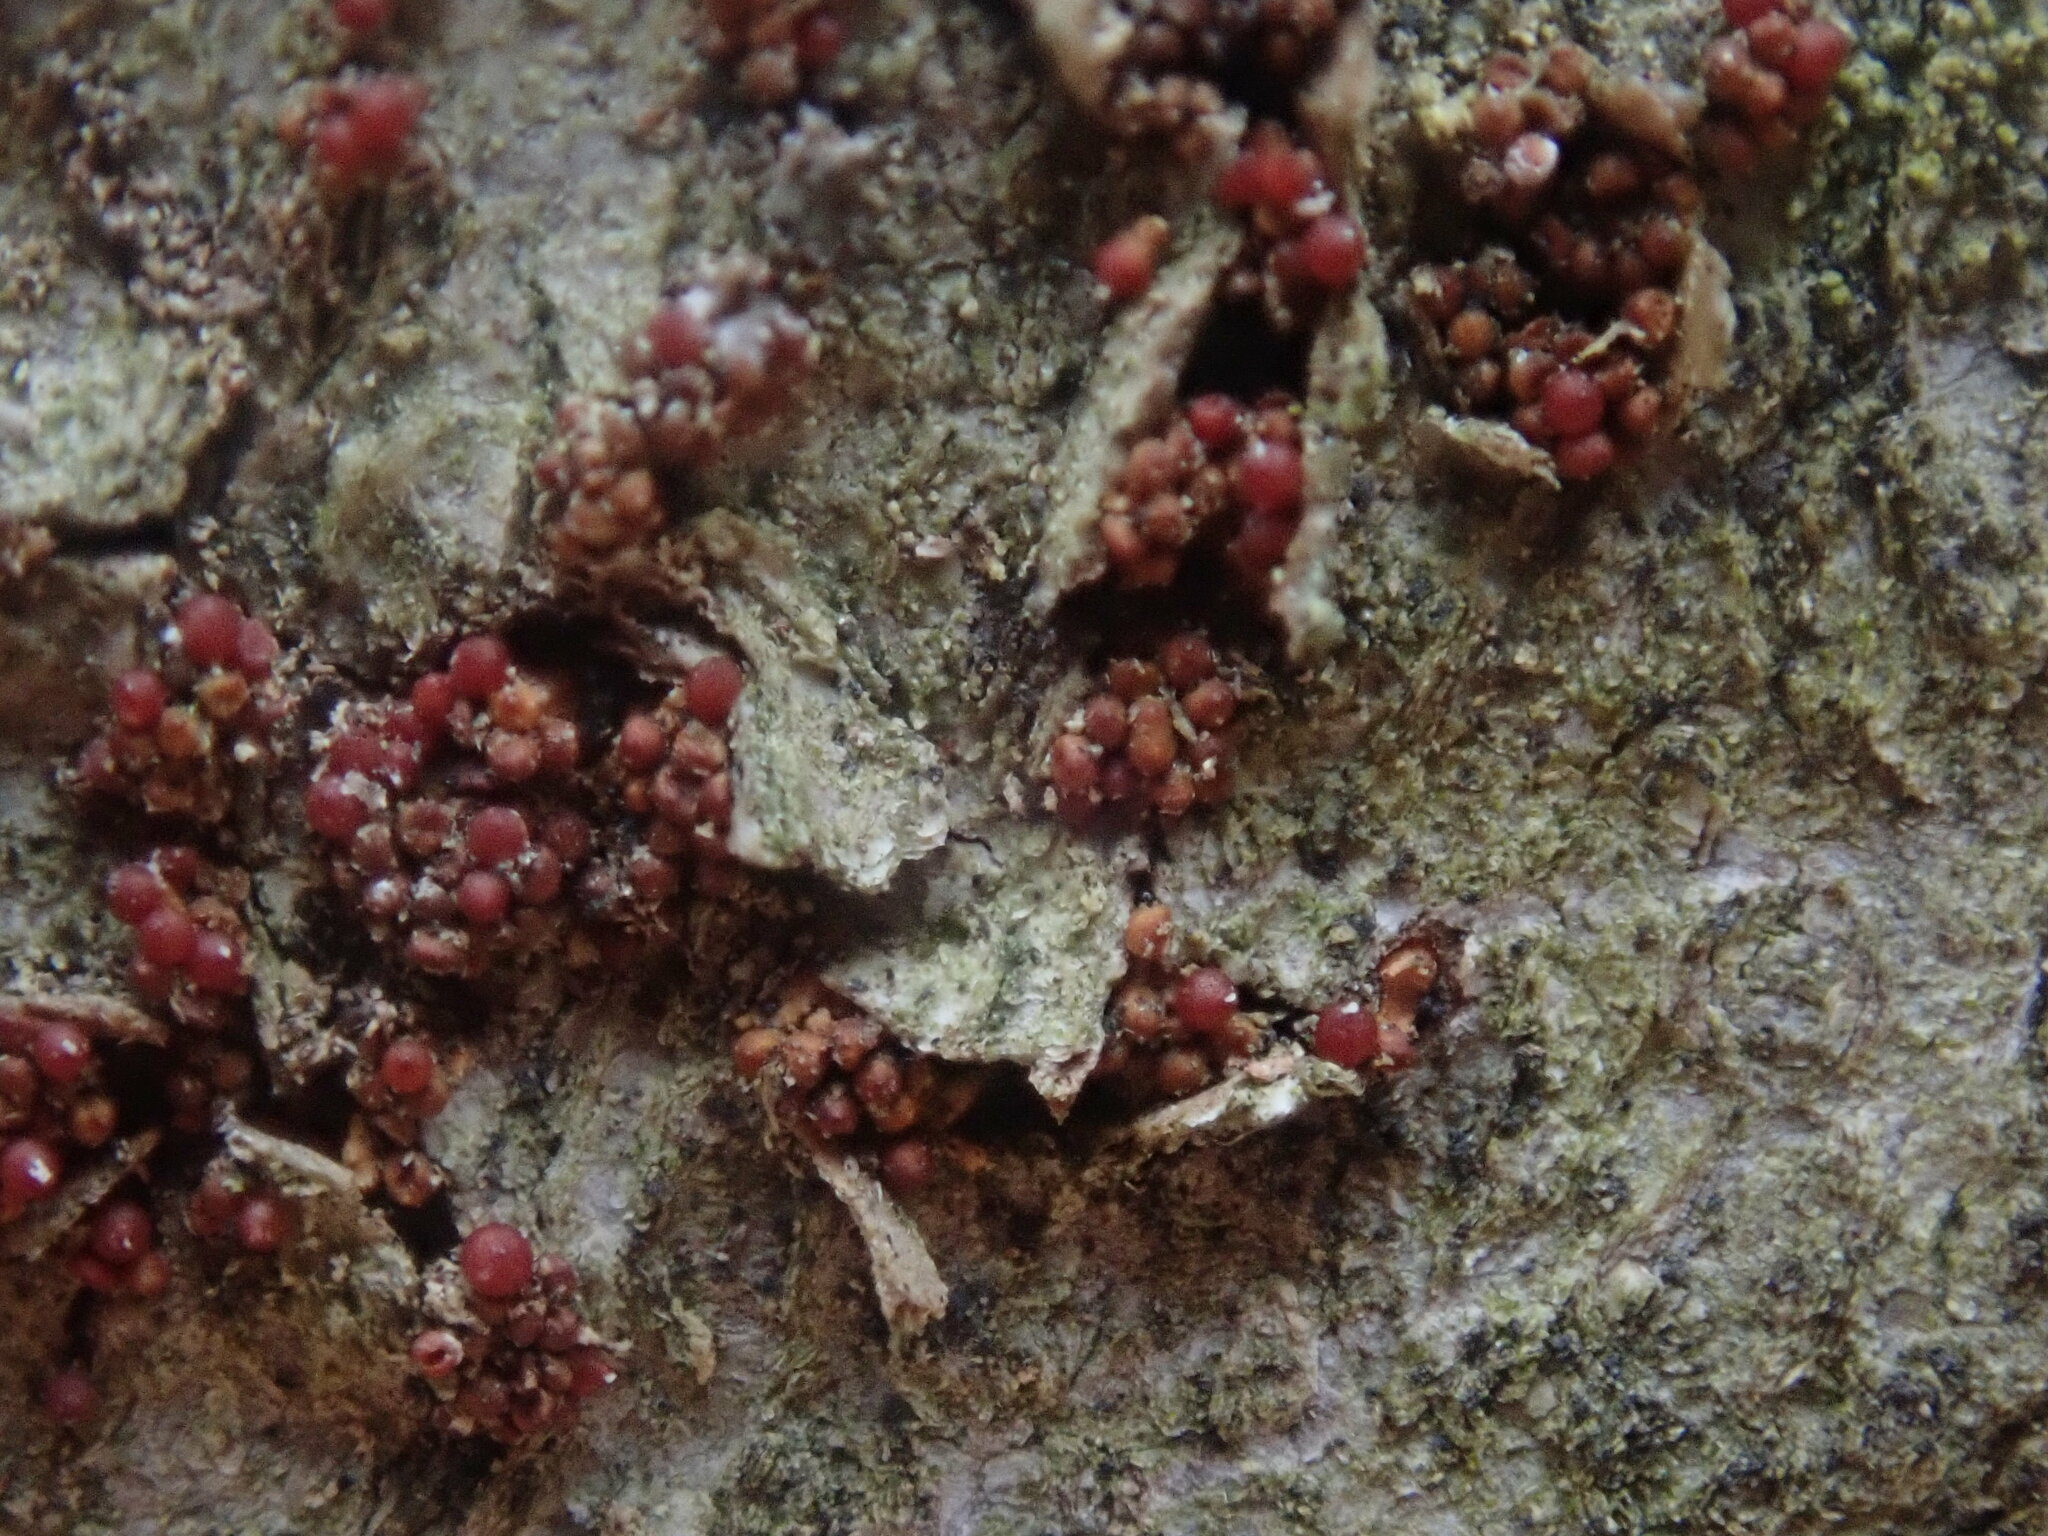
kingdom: Fungi
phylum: Ascomycota
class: Sordariomycetes
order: Hypocreales
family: Nectriaceae
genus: Neonectria
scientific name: Neonectria faginata
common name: Beech bark canker
